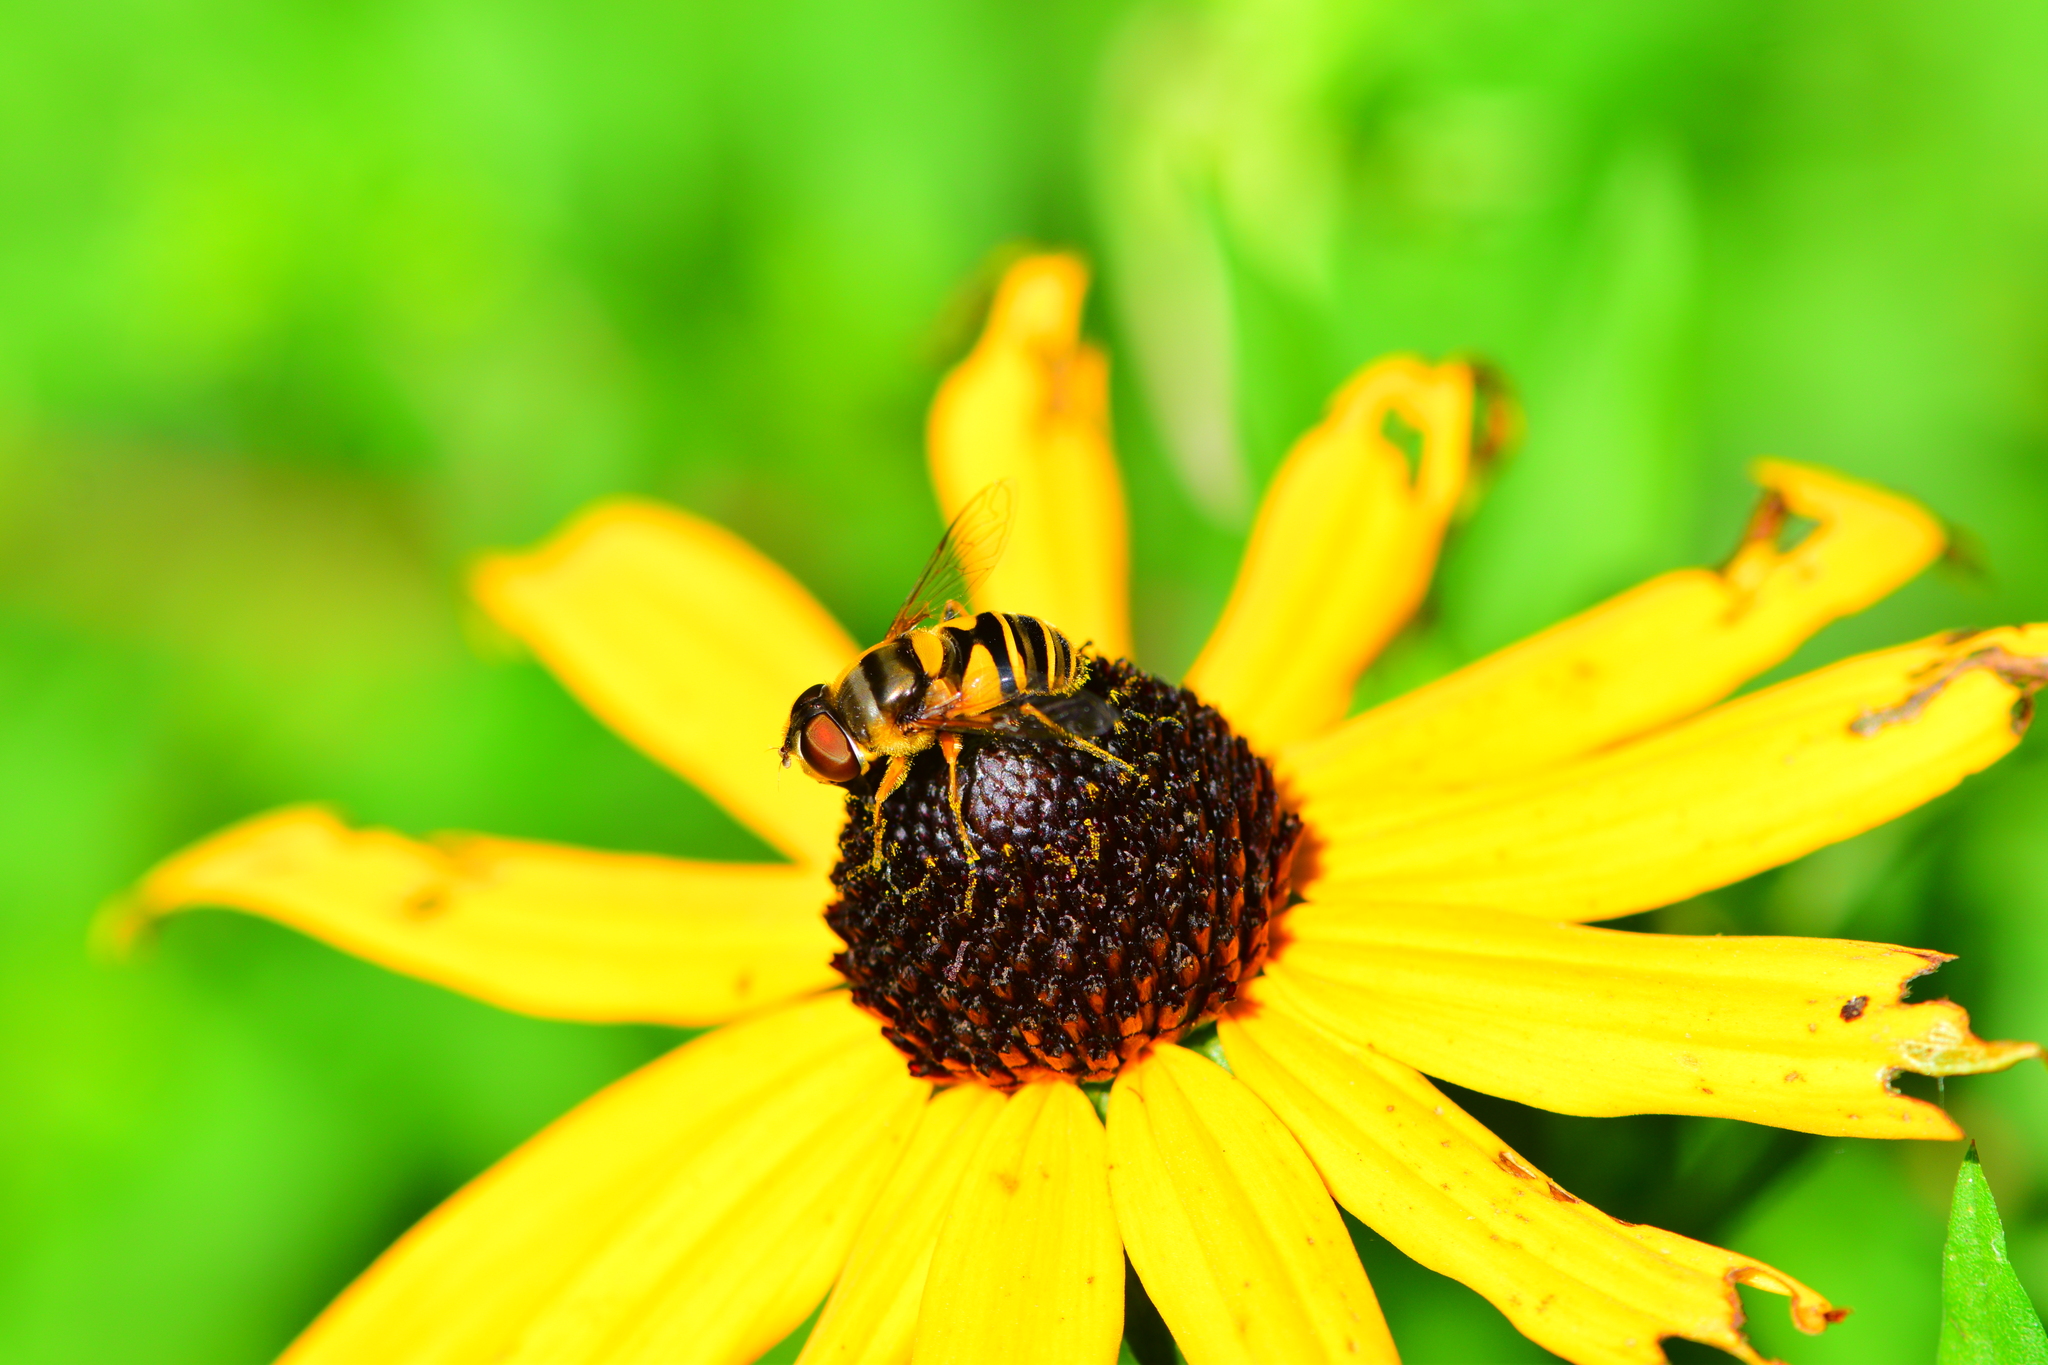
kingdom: Animalia
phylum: Arthropoda
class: Insecta
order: Diptera
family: Syrphidae
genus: Eristalis
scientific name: Eristalis transversa
